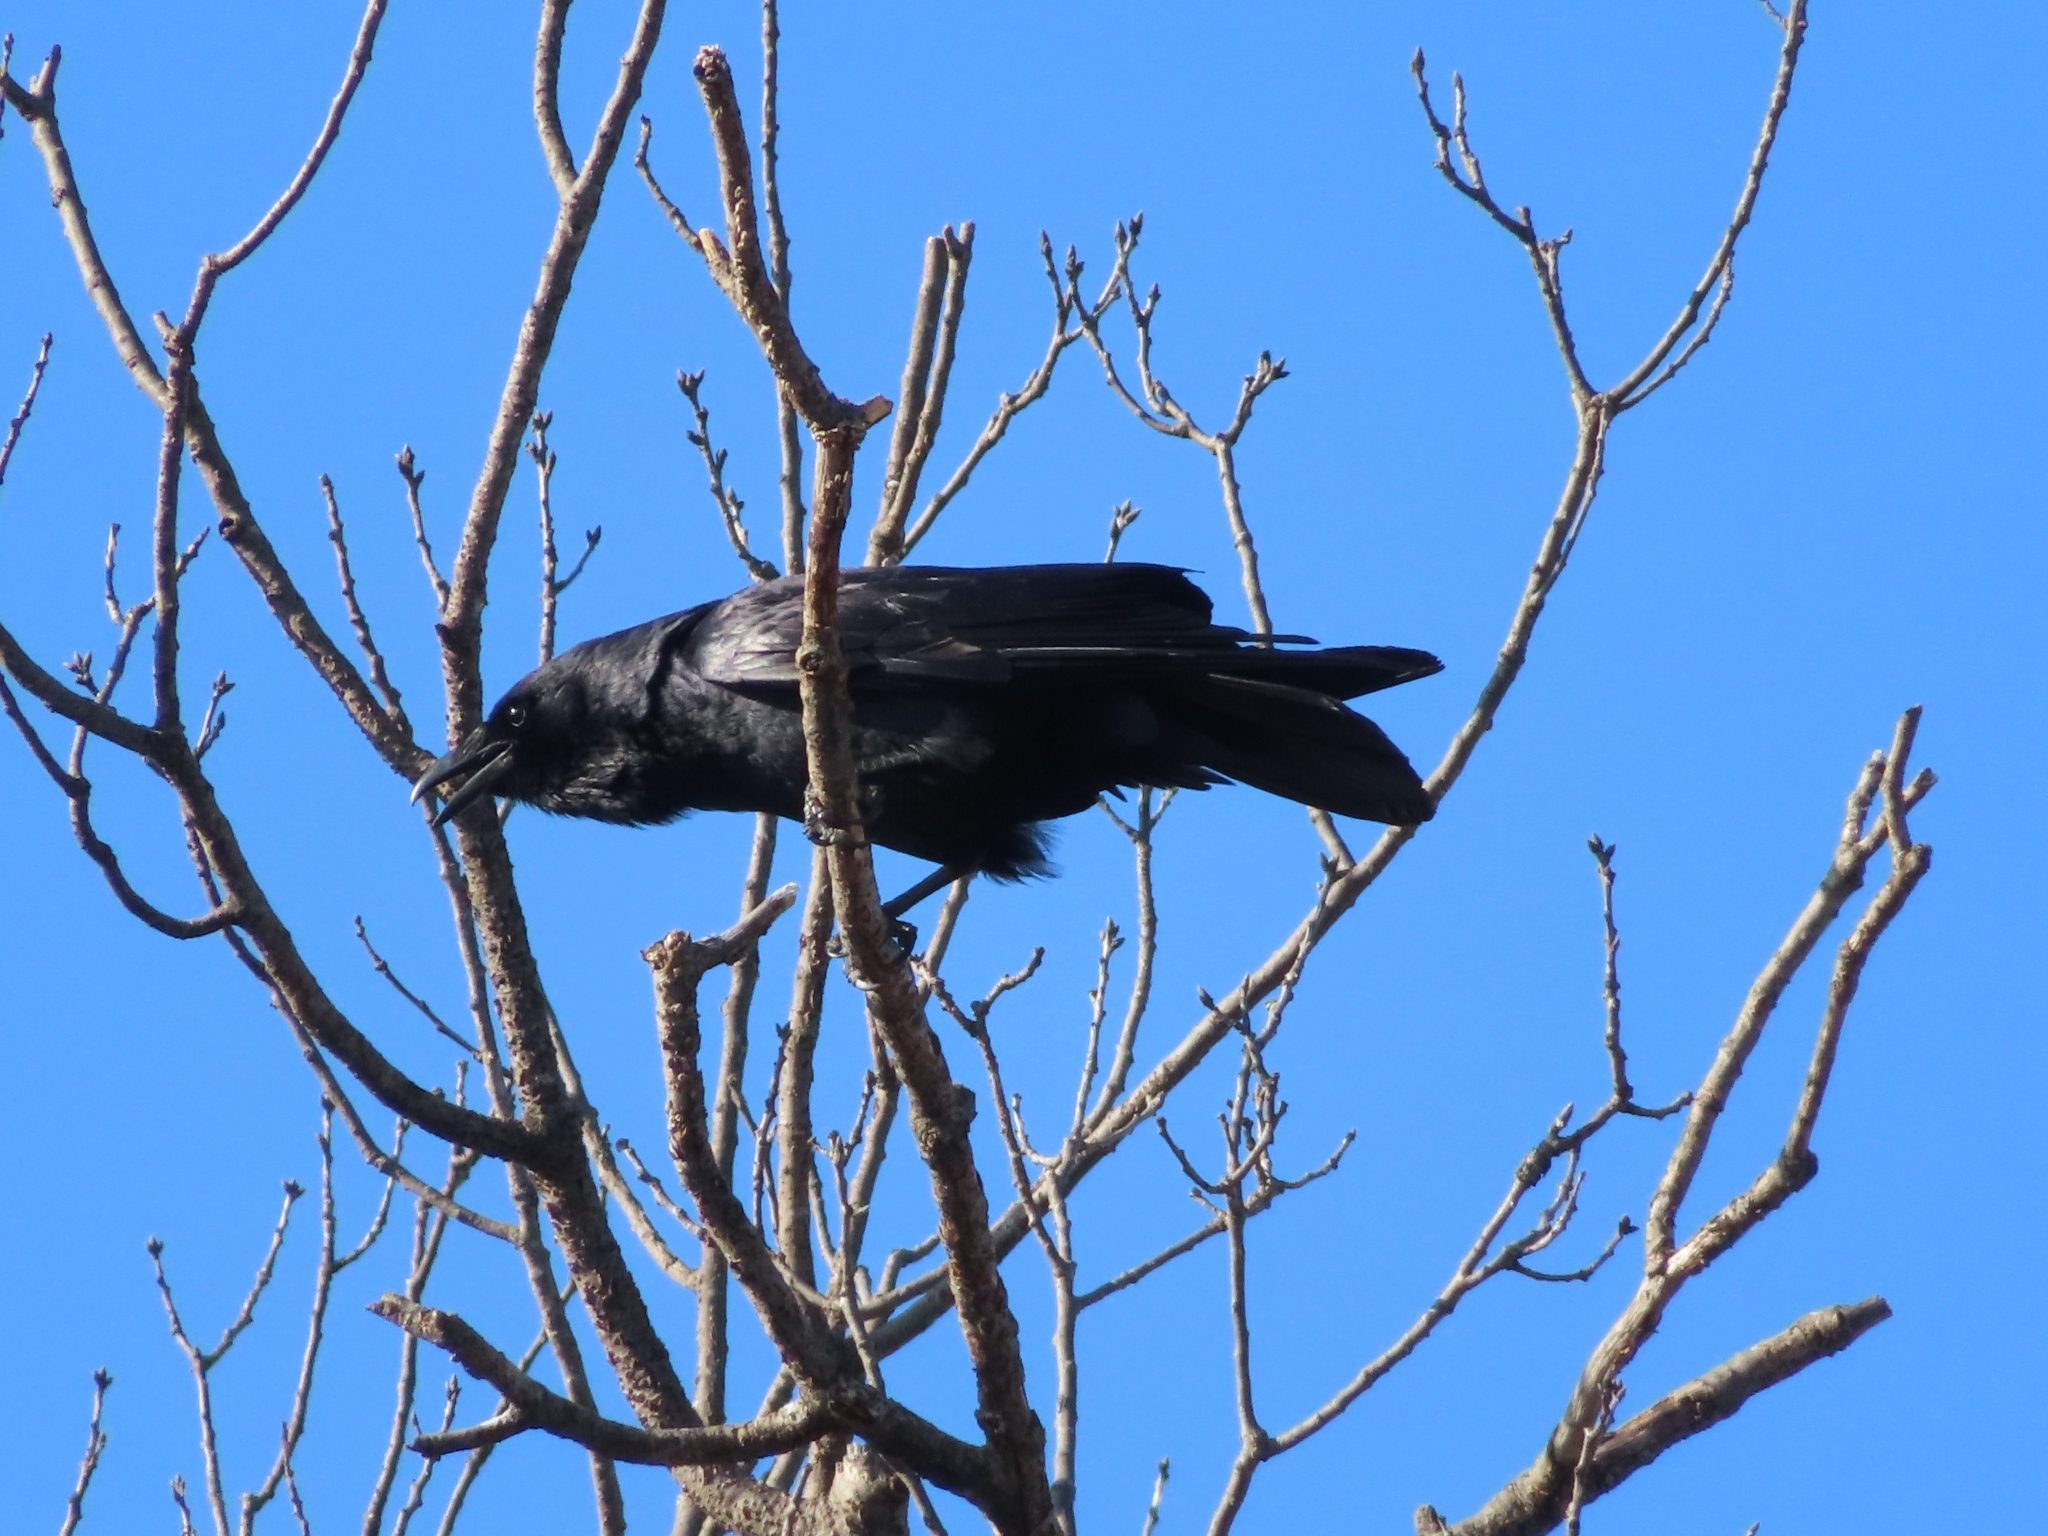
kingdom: Animalia
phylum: Chordata
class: Aves
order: Passeriformes
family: Corvidae
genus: Corvus
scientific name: Corvus ossifragus
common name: Fish crow
